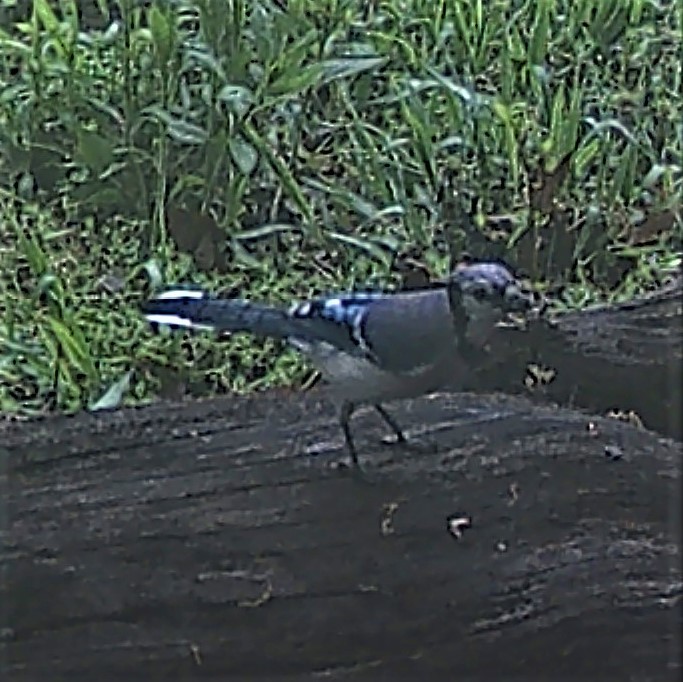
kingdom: Animalia
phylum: Chordata
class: Aves
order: Passeriformes
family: Corvidae
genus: Cyanocitta
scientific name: Cyanocitta cristata
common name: Blue jay
